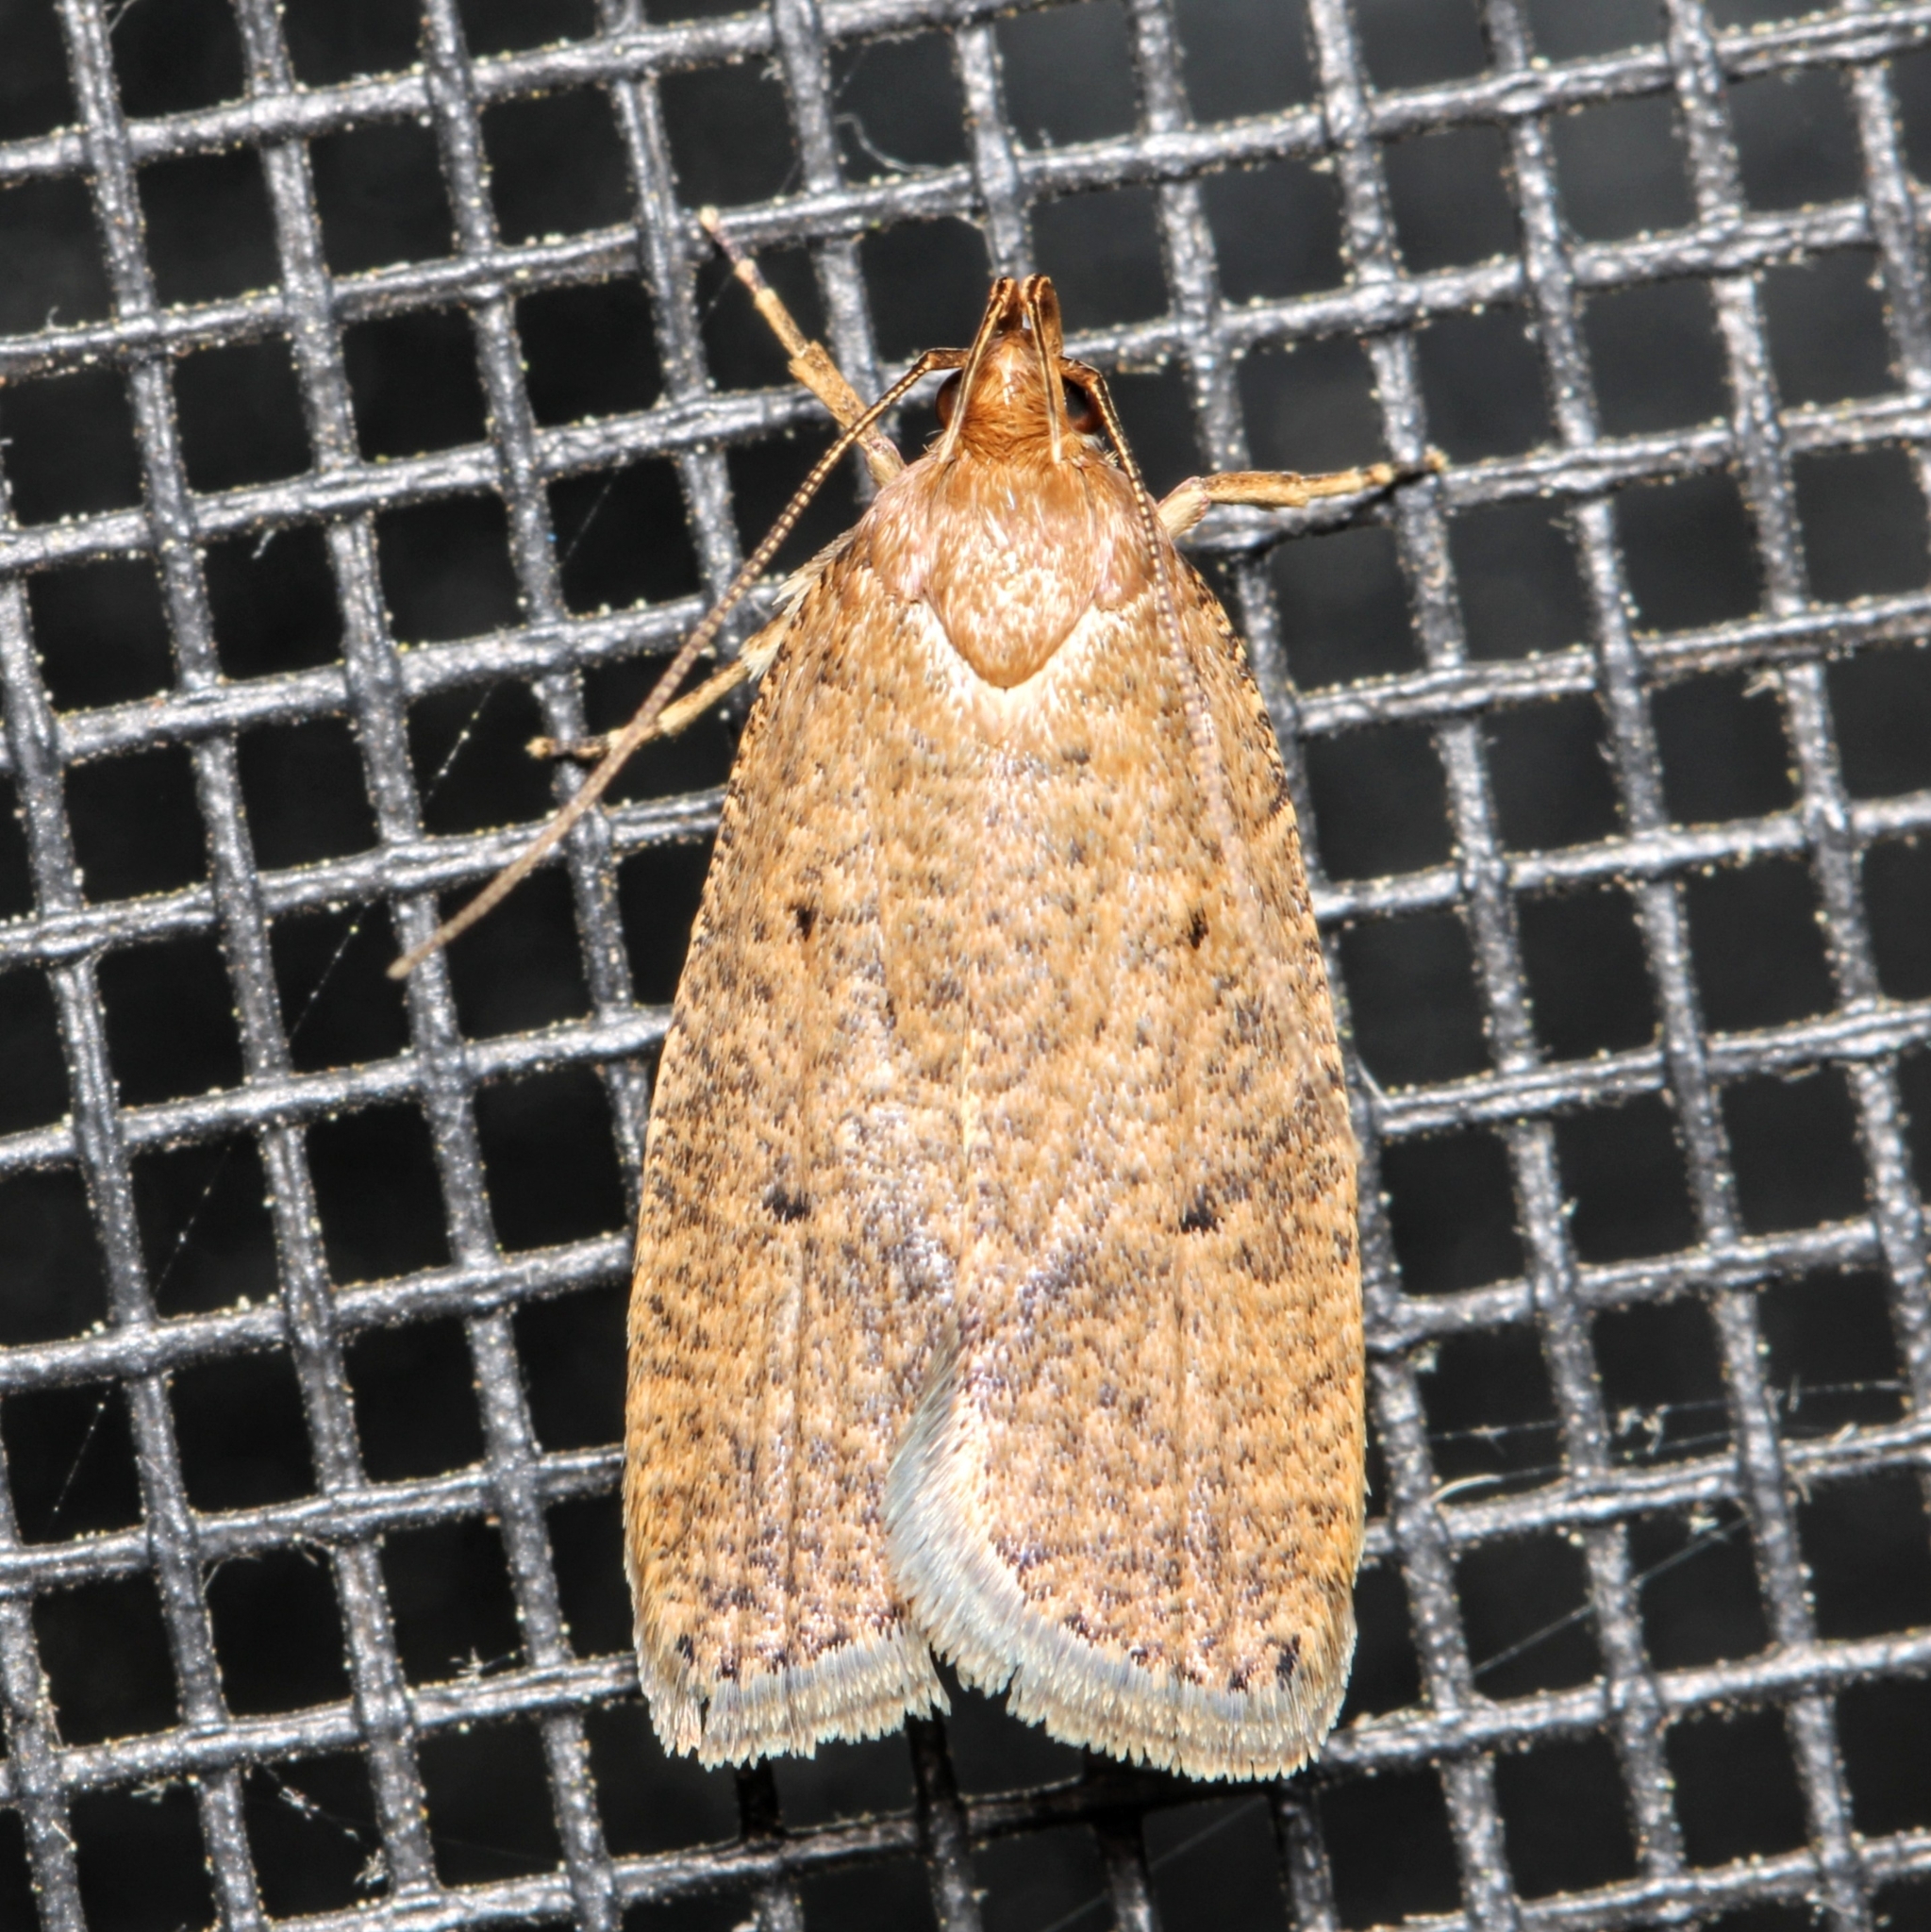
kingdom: Animalia
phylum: Arthropoda
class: Insecta
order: Lepidoptera
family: Depressariidae
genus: Psilocorsis
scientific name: Psilocorsis reflexella
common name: Dotted leaftier moth
